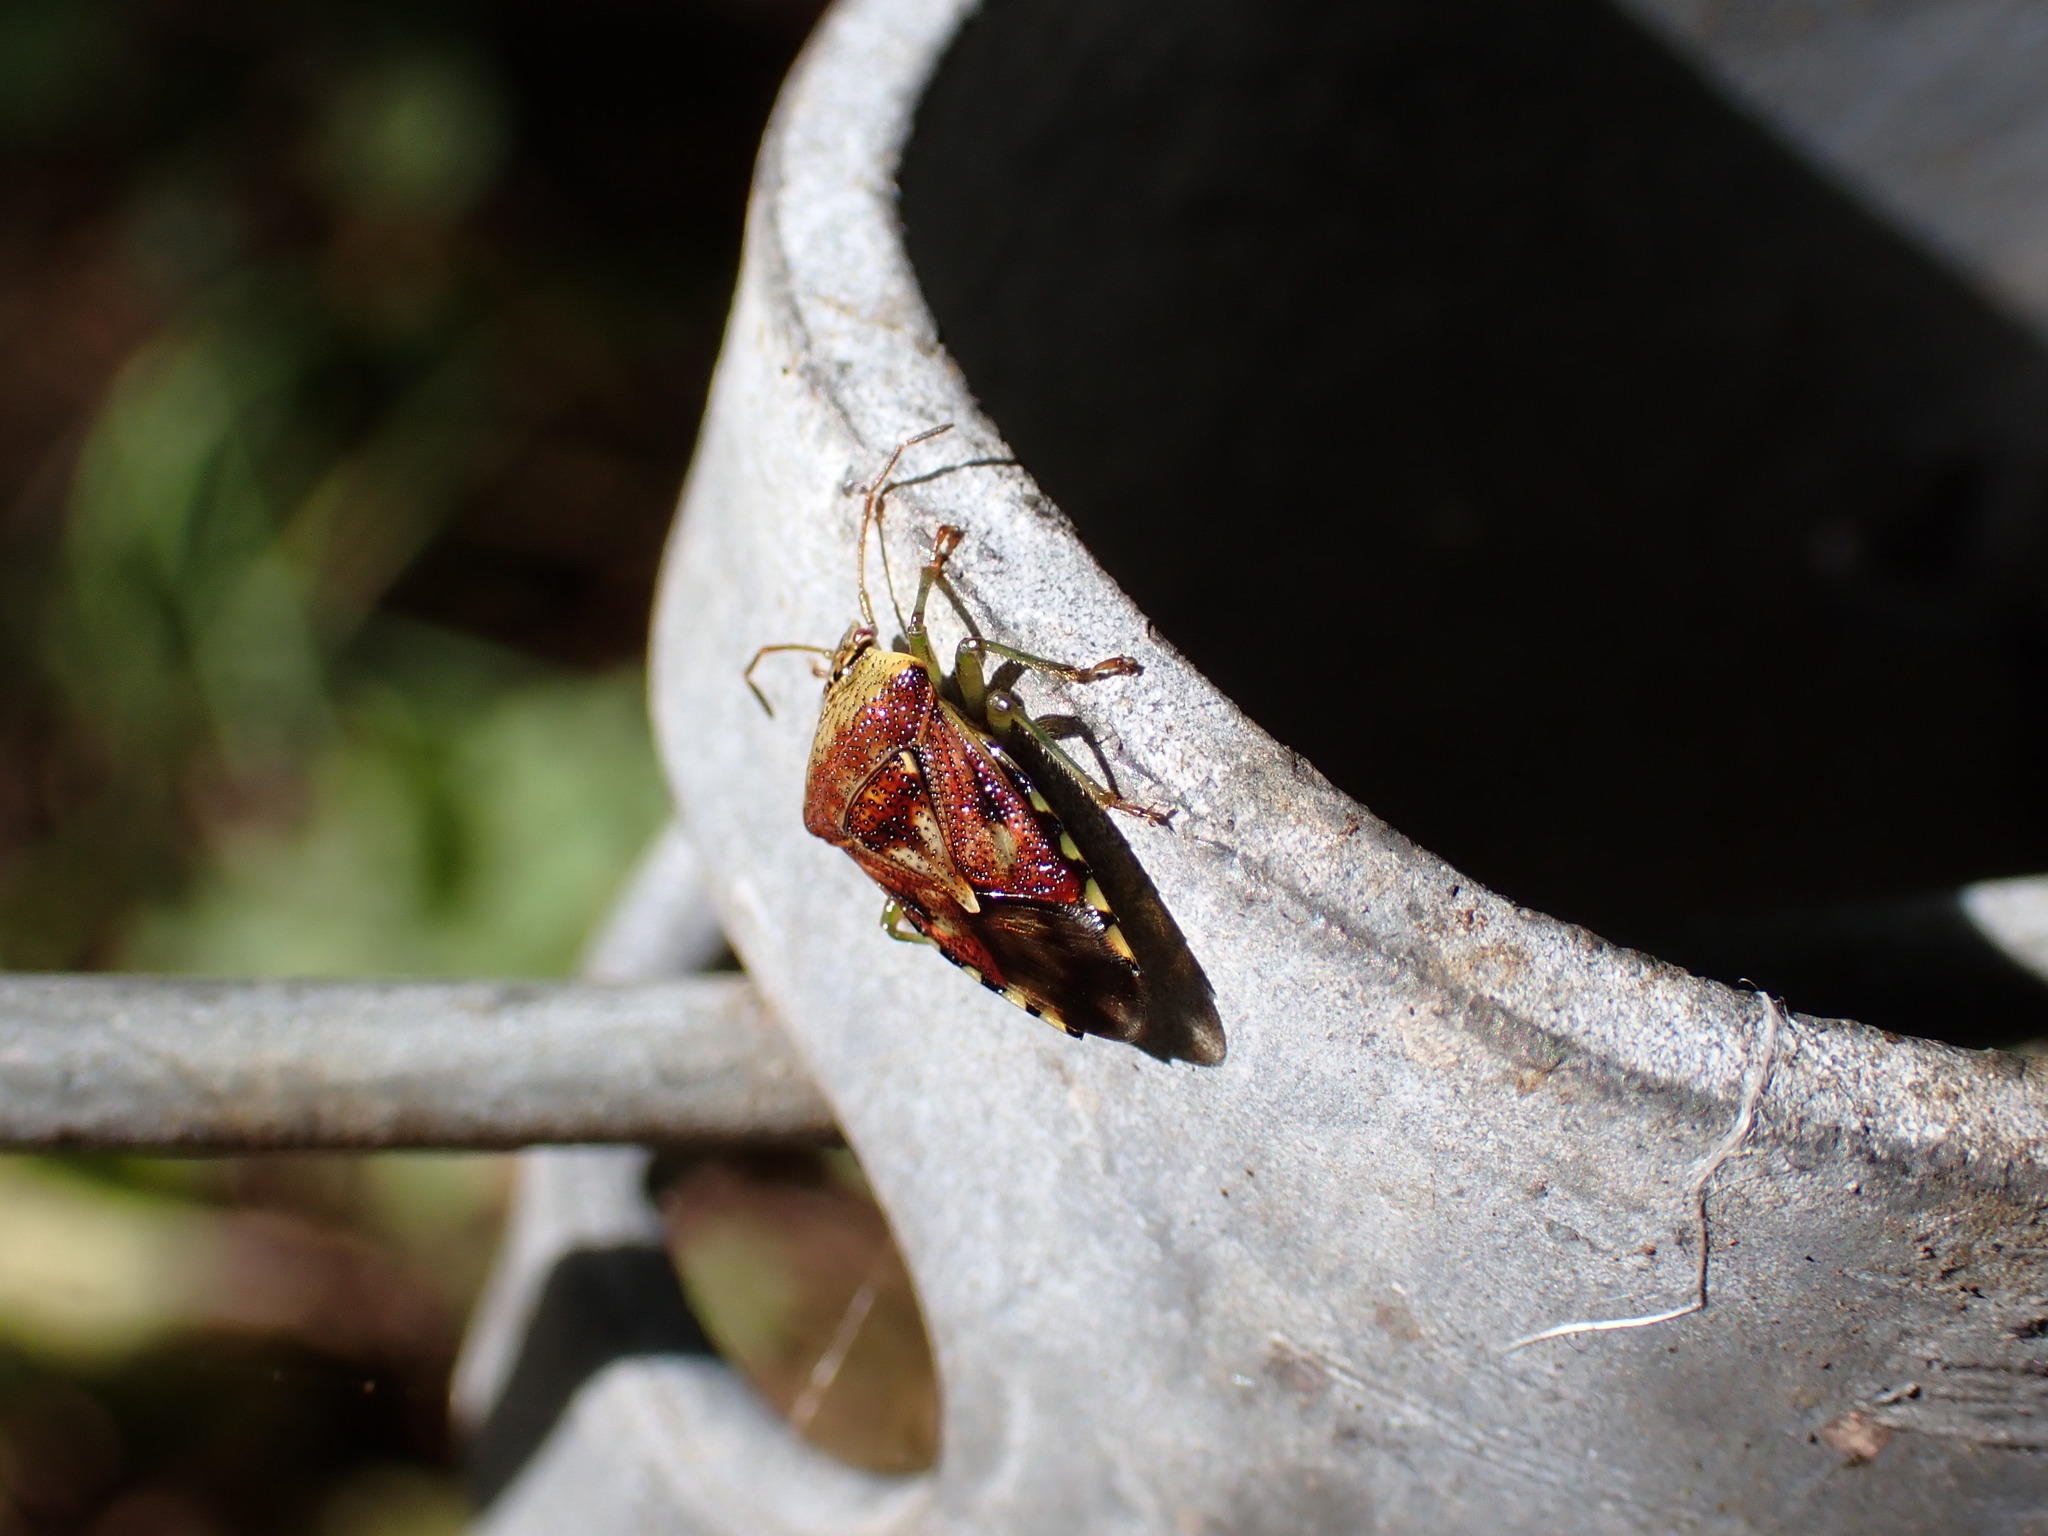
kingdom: Animalia
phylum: Arthropoda
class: Insecta
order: Hemiptera
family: Acanthosomatidae
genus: Elasmucha
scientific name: Elasmucha grisea
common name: Parent bug
